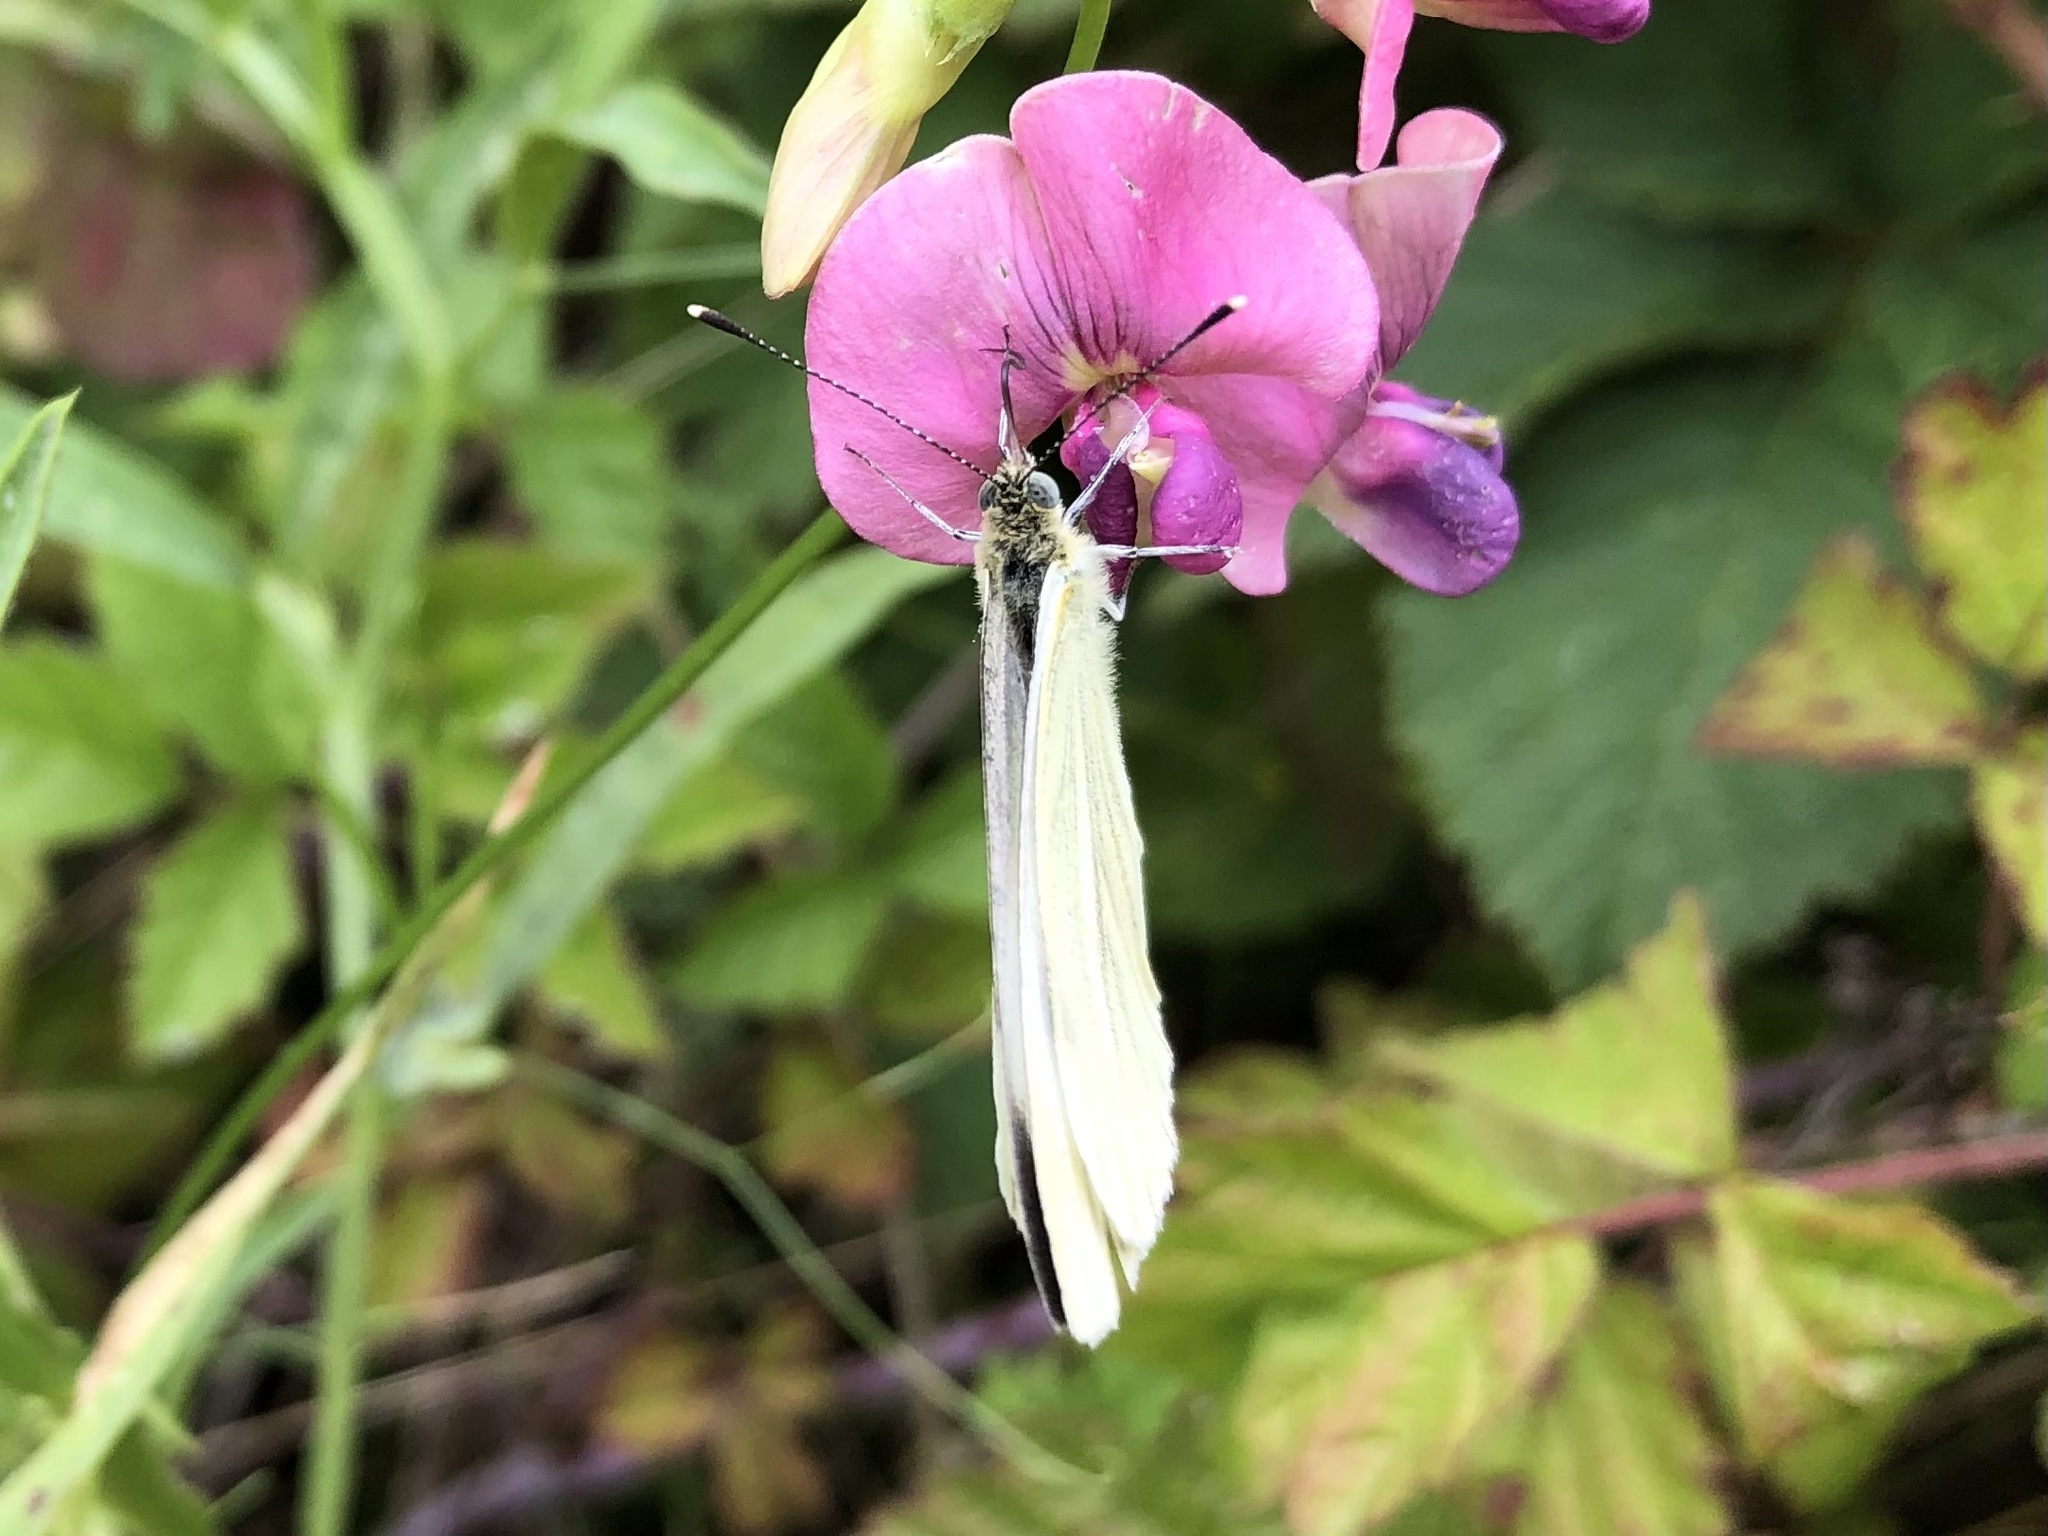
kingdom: Animalia
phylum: Arthropoda
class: Insecta
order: Lepidoptera
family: Pieridae
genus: Pieris
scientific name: Pieris napi
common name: Green-veined white
